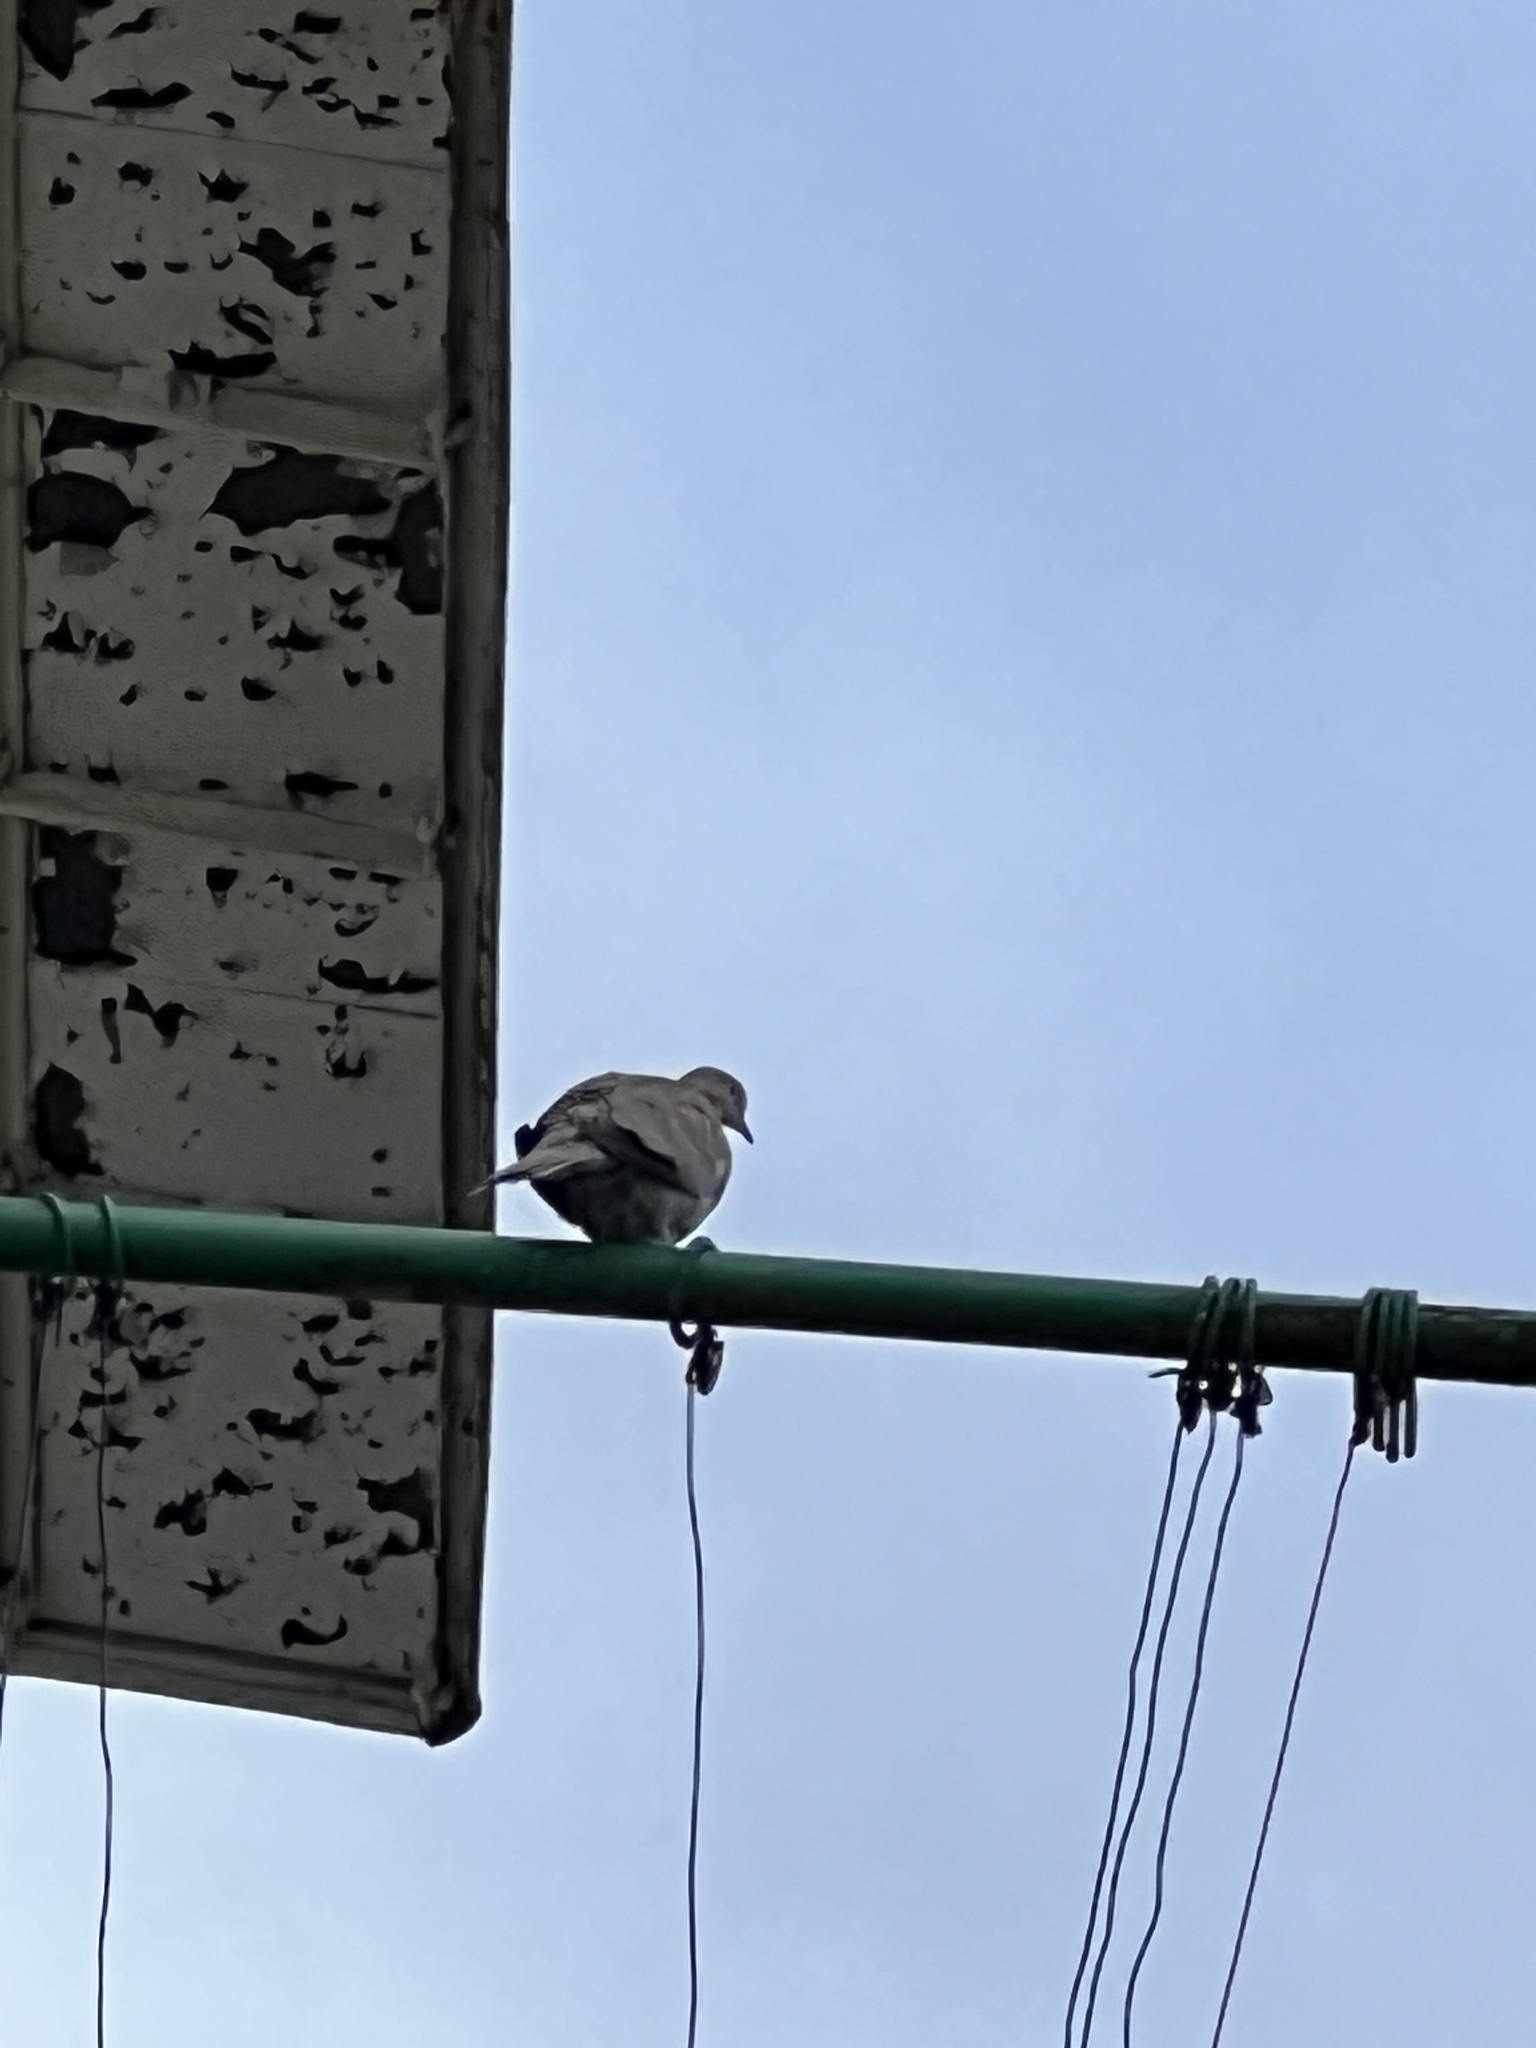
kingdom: Animalia
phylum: Chordata
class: Aves
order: Columbiformes
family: Columbidae
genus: Streptopelia
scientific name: Streptopelia decaocto
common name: Eurasian collared dove
